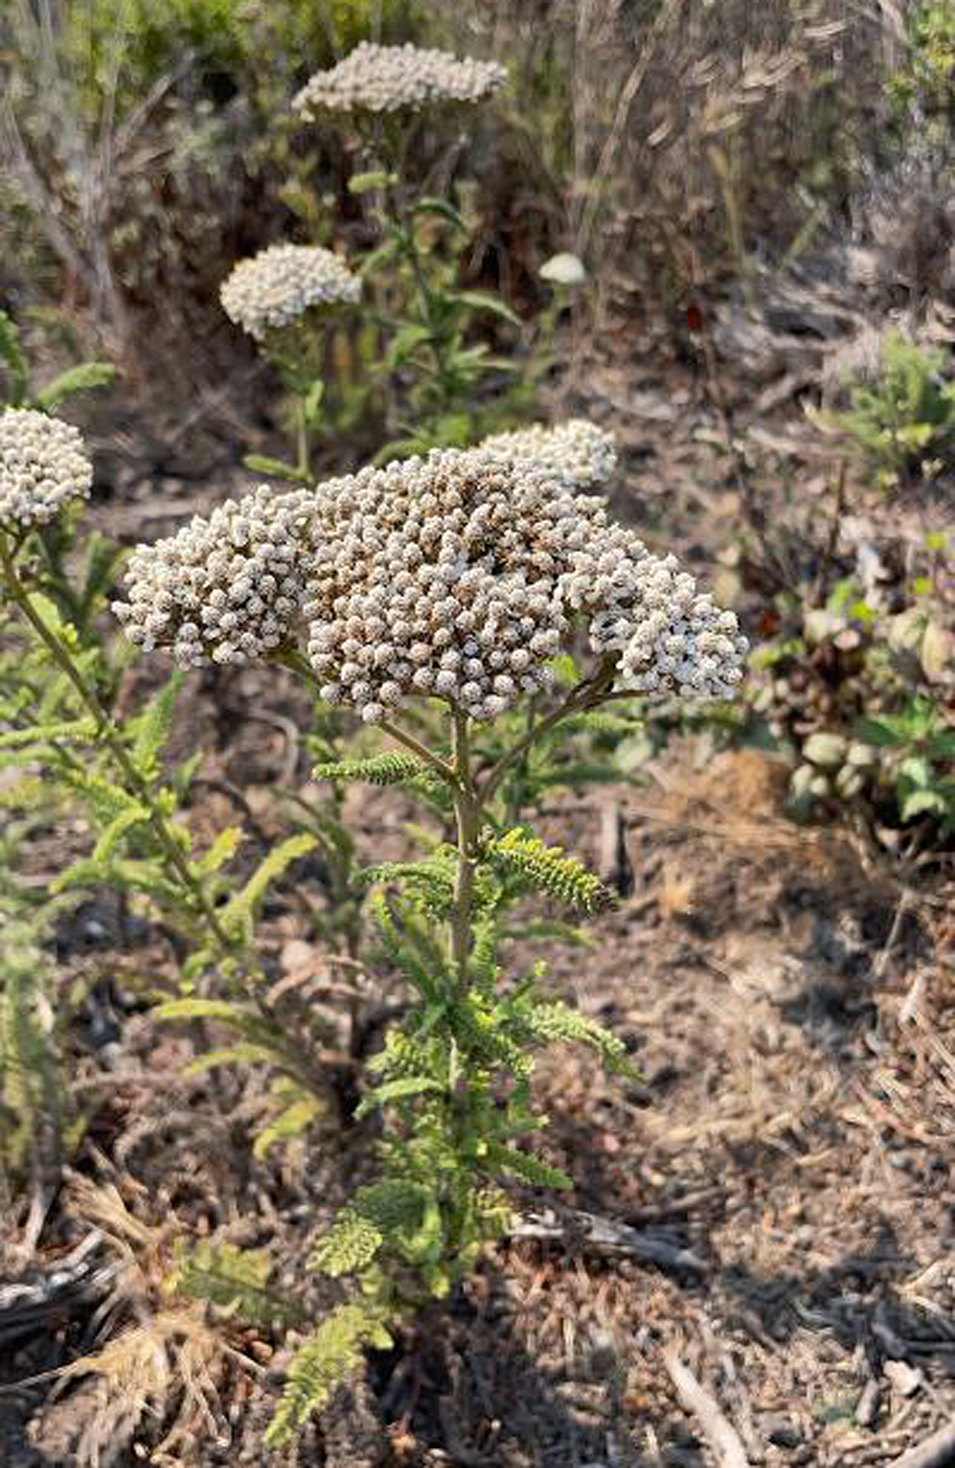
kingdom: Plantae
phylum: Tracheophyta
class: Magnoliopsida
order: Asterales
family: Asteraceae
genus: Achillea
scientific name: Achillea millefolium
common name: Yarrow
